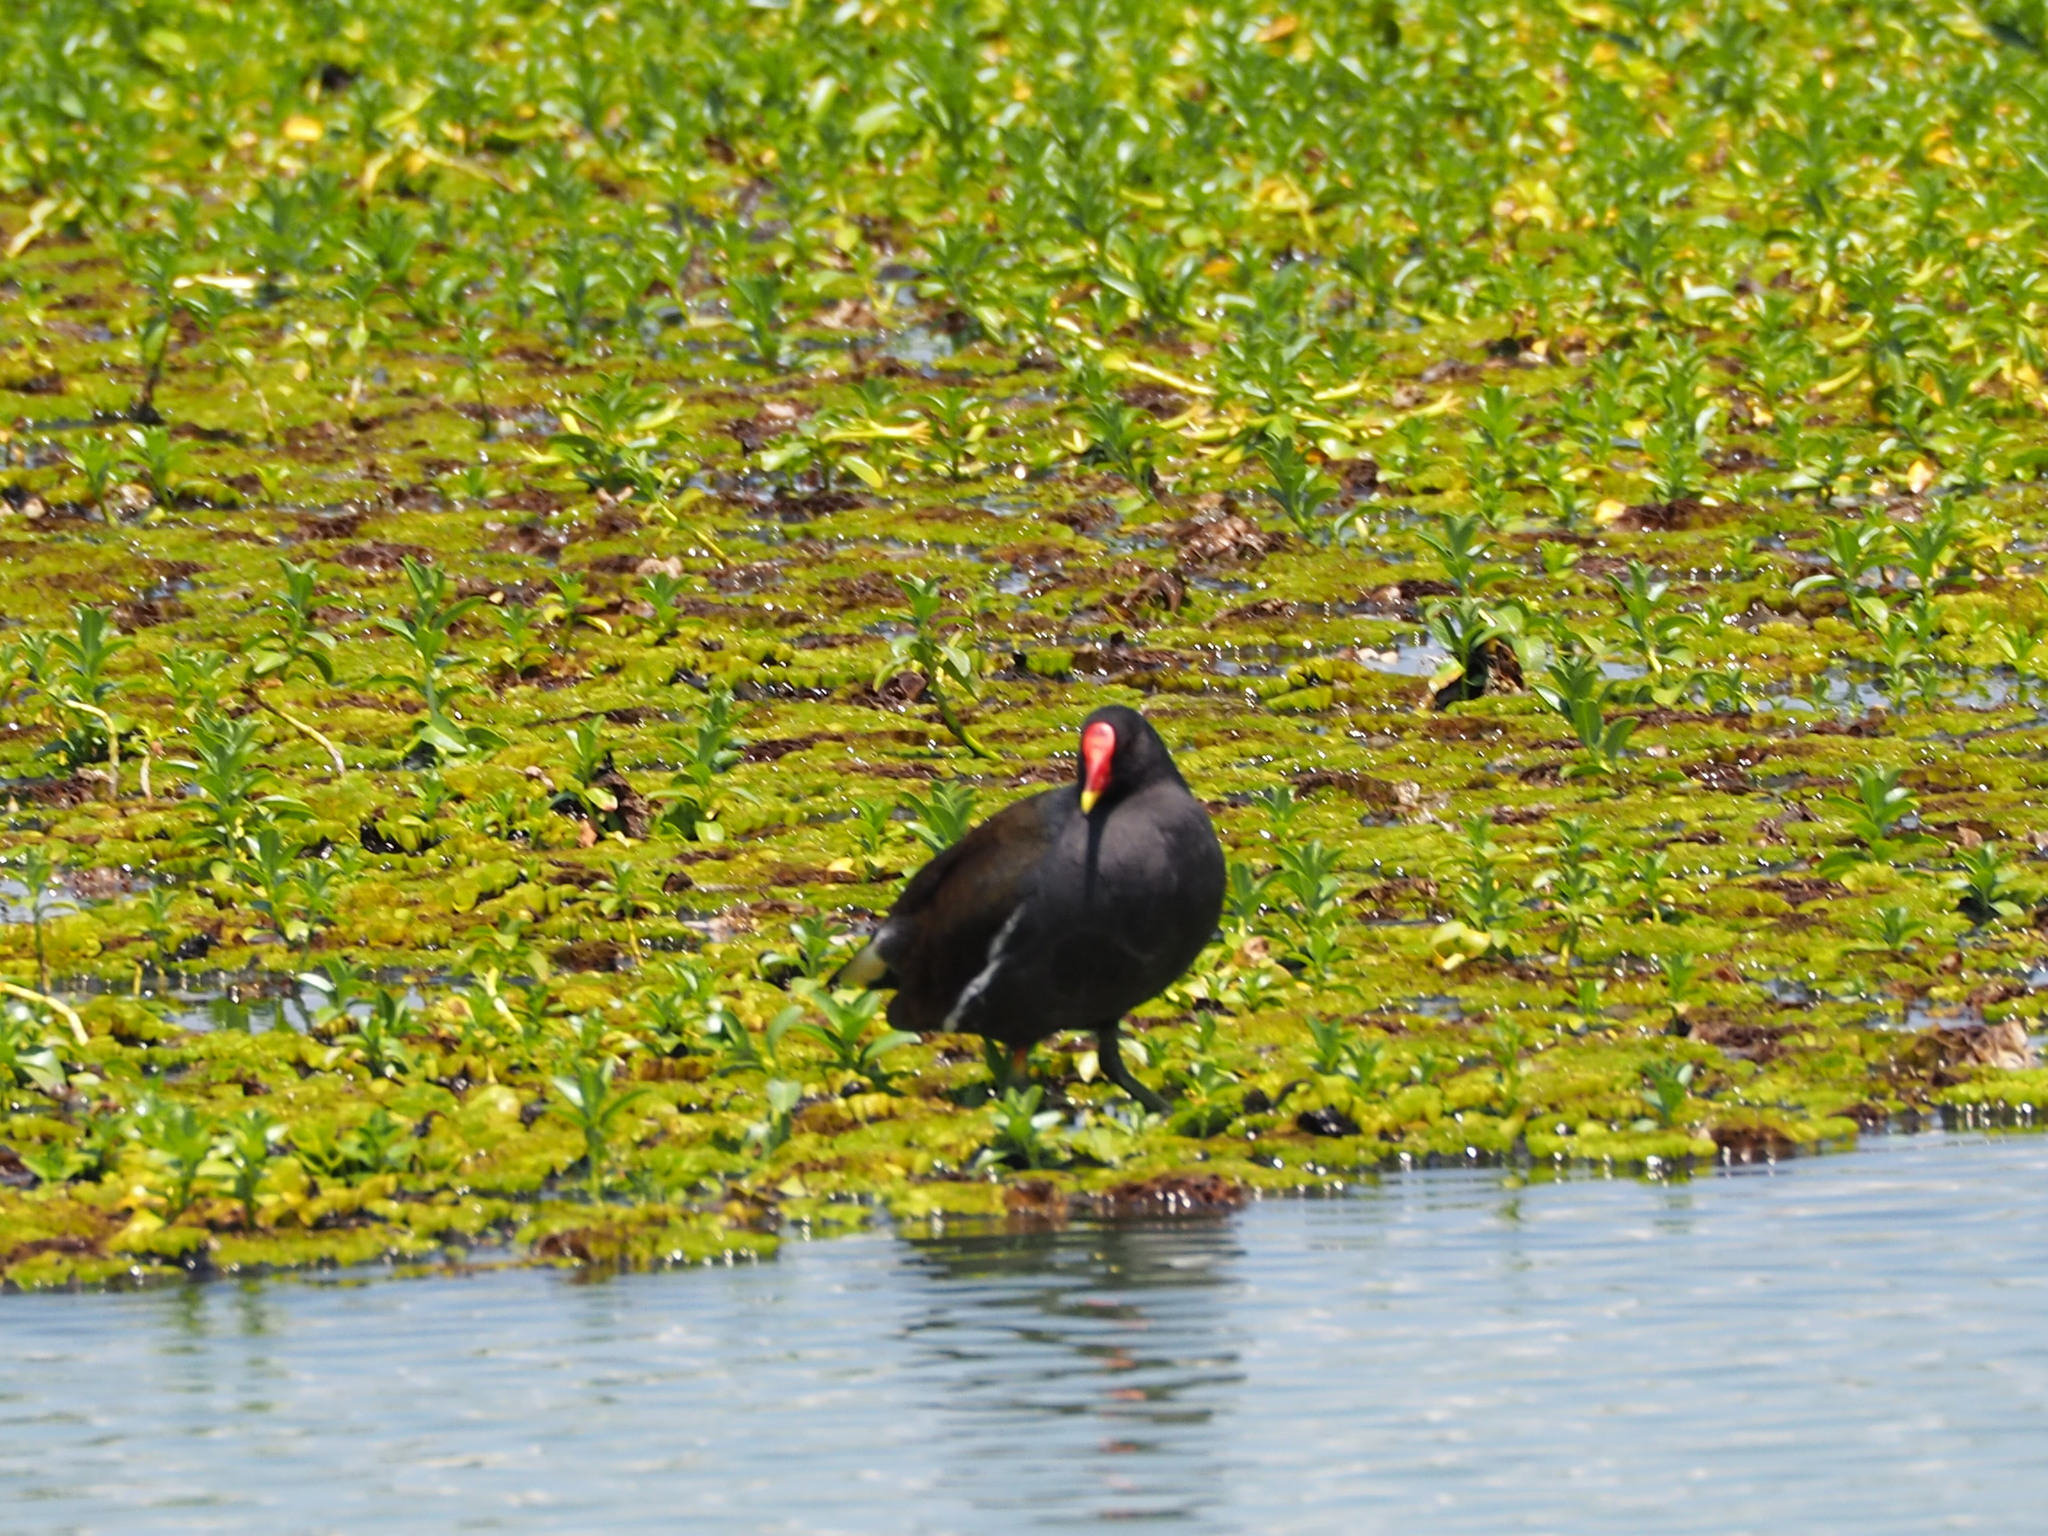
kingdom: Animalia
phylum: Chordata
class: Aves
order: Gruiformes
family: Rallidae
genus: Gallinula
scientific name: Gallinula chloropus
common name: Common moorhen
